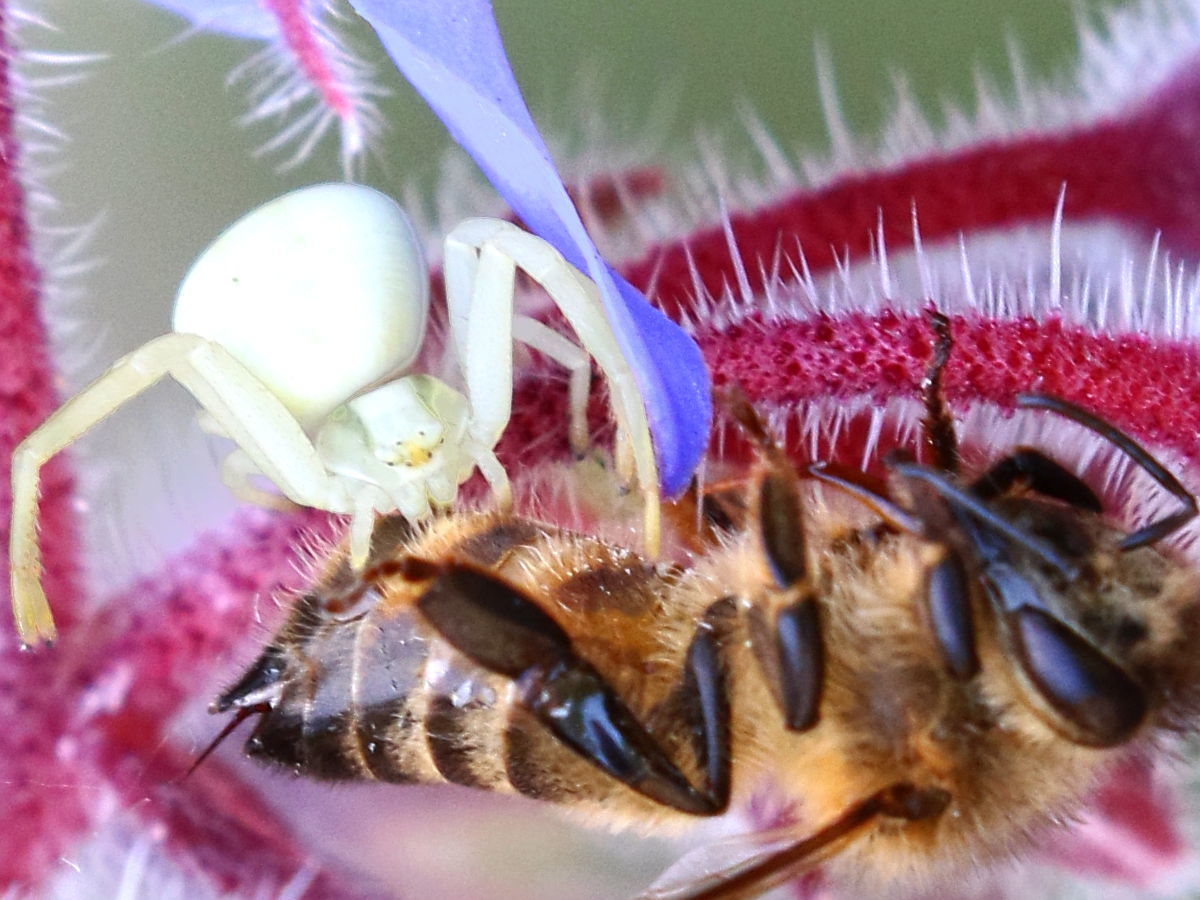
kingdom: Animalia
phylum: Arthropoda
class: Arachnida
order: Araneae
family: Thomisidae
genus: Misumena
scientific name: Misumena vatia
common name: Goldenrod crab spider
